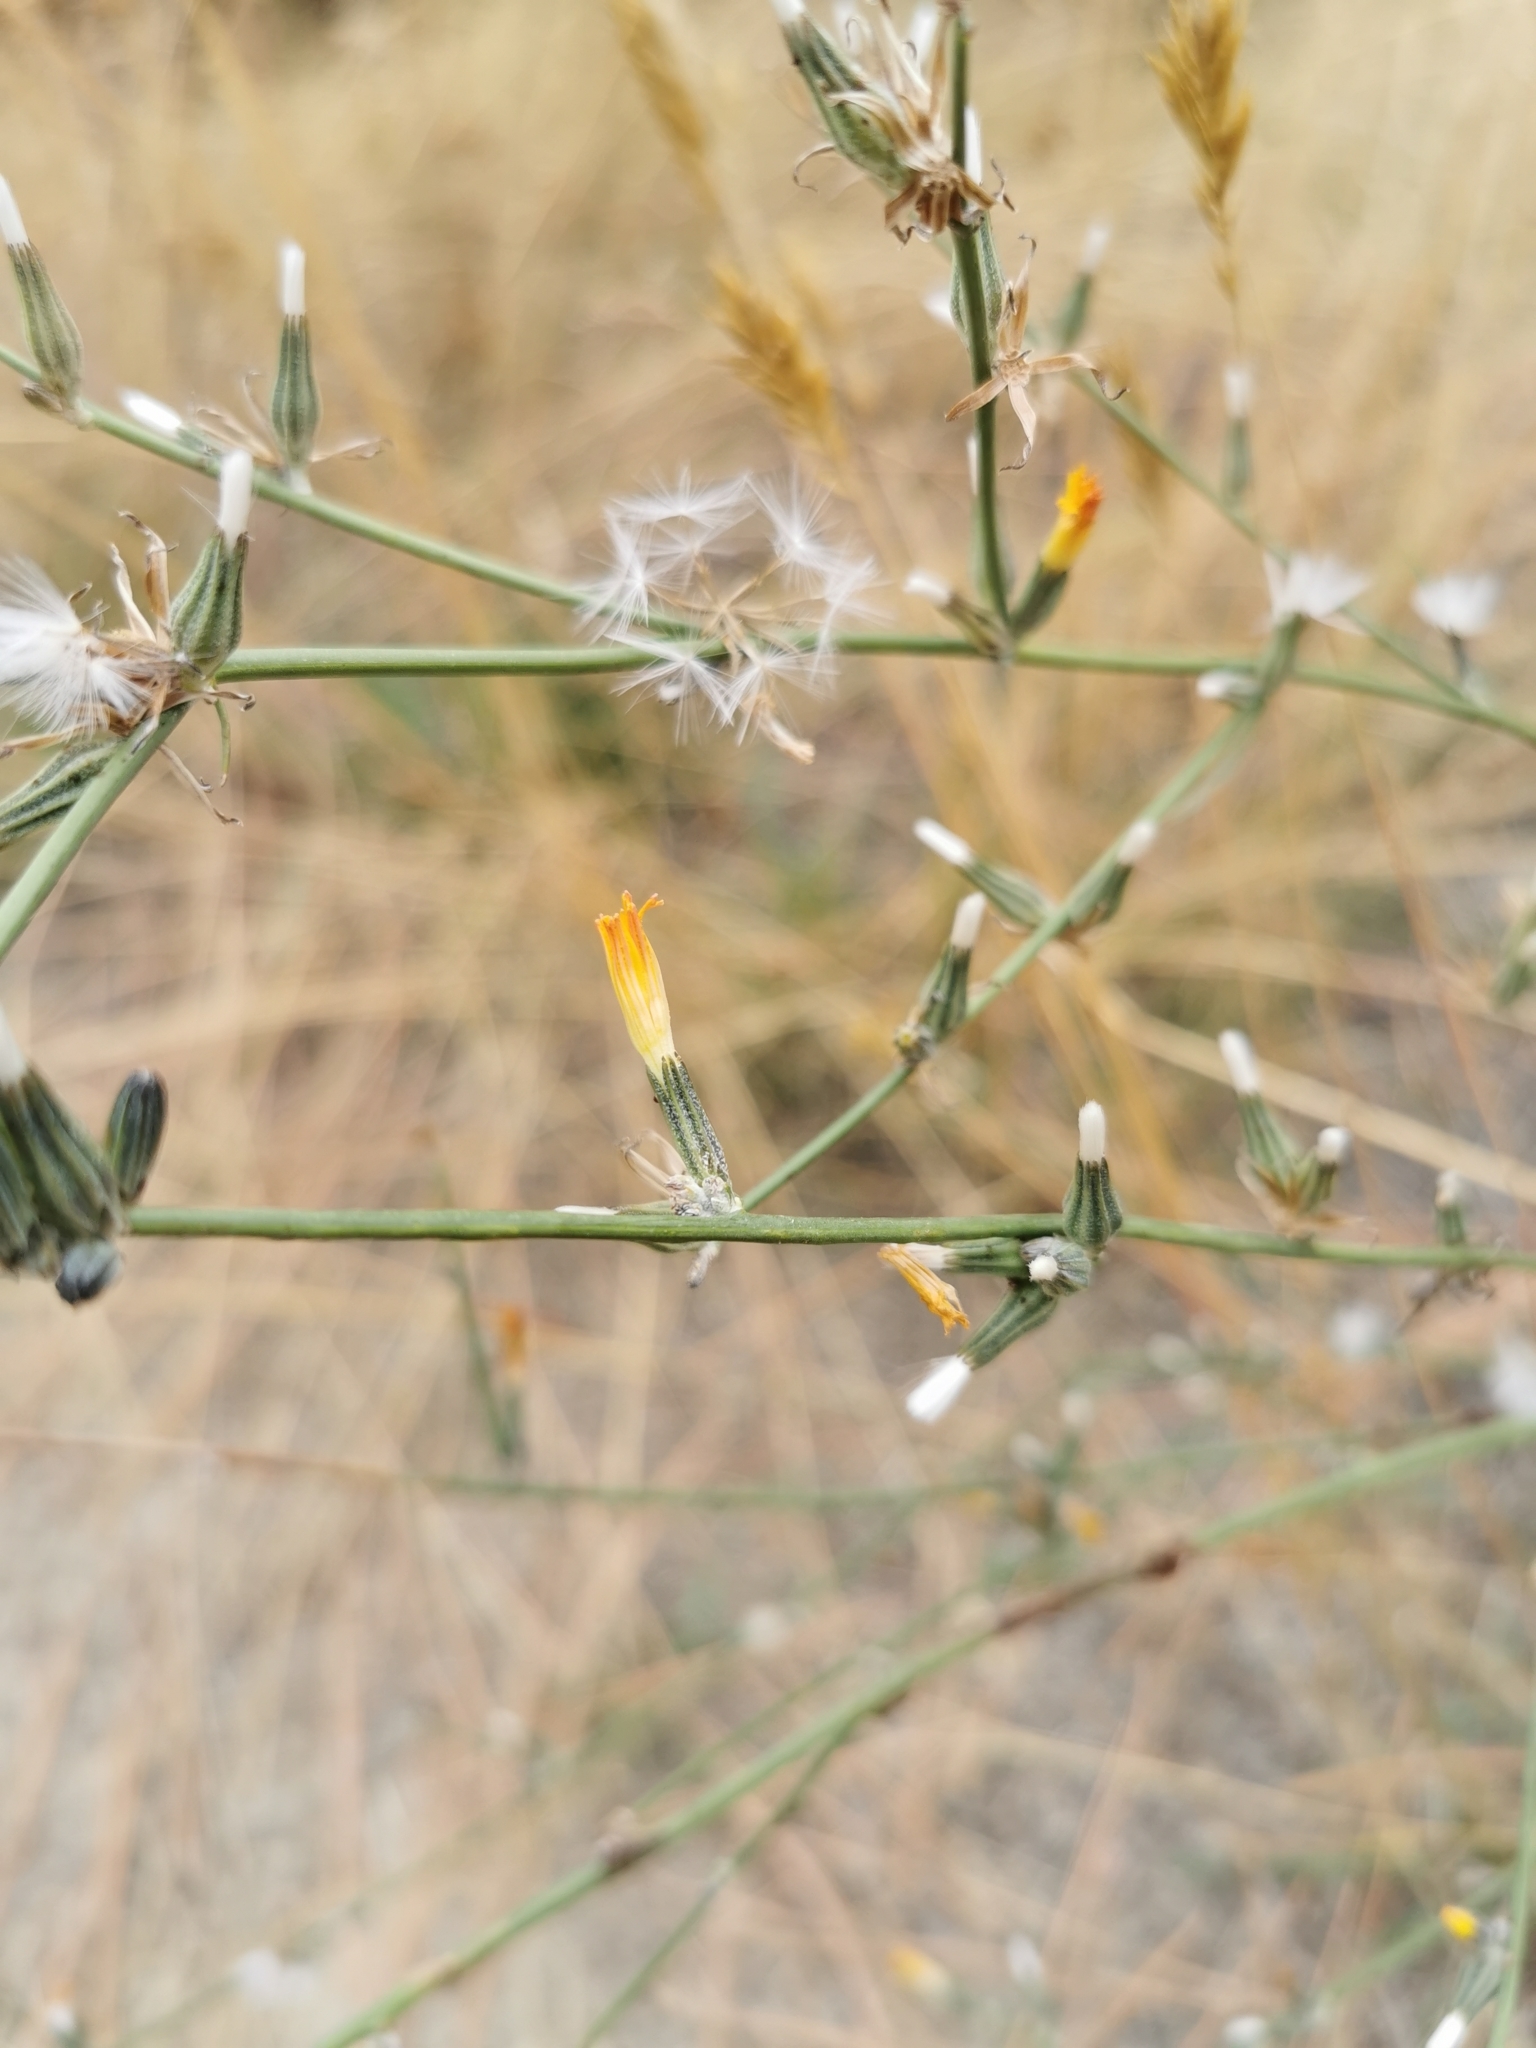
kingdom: Plantae
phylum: Tracheophyta
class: Magnoliopsida
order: Asterales
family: Asteraceae
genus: Chondrilla
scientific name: Chondrilla juncea
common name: Skeleton weed
